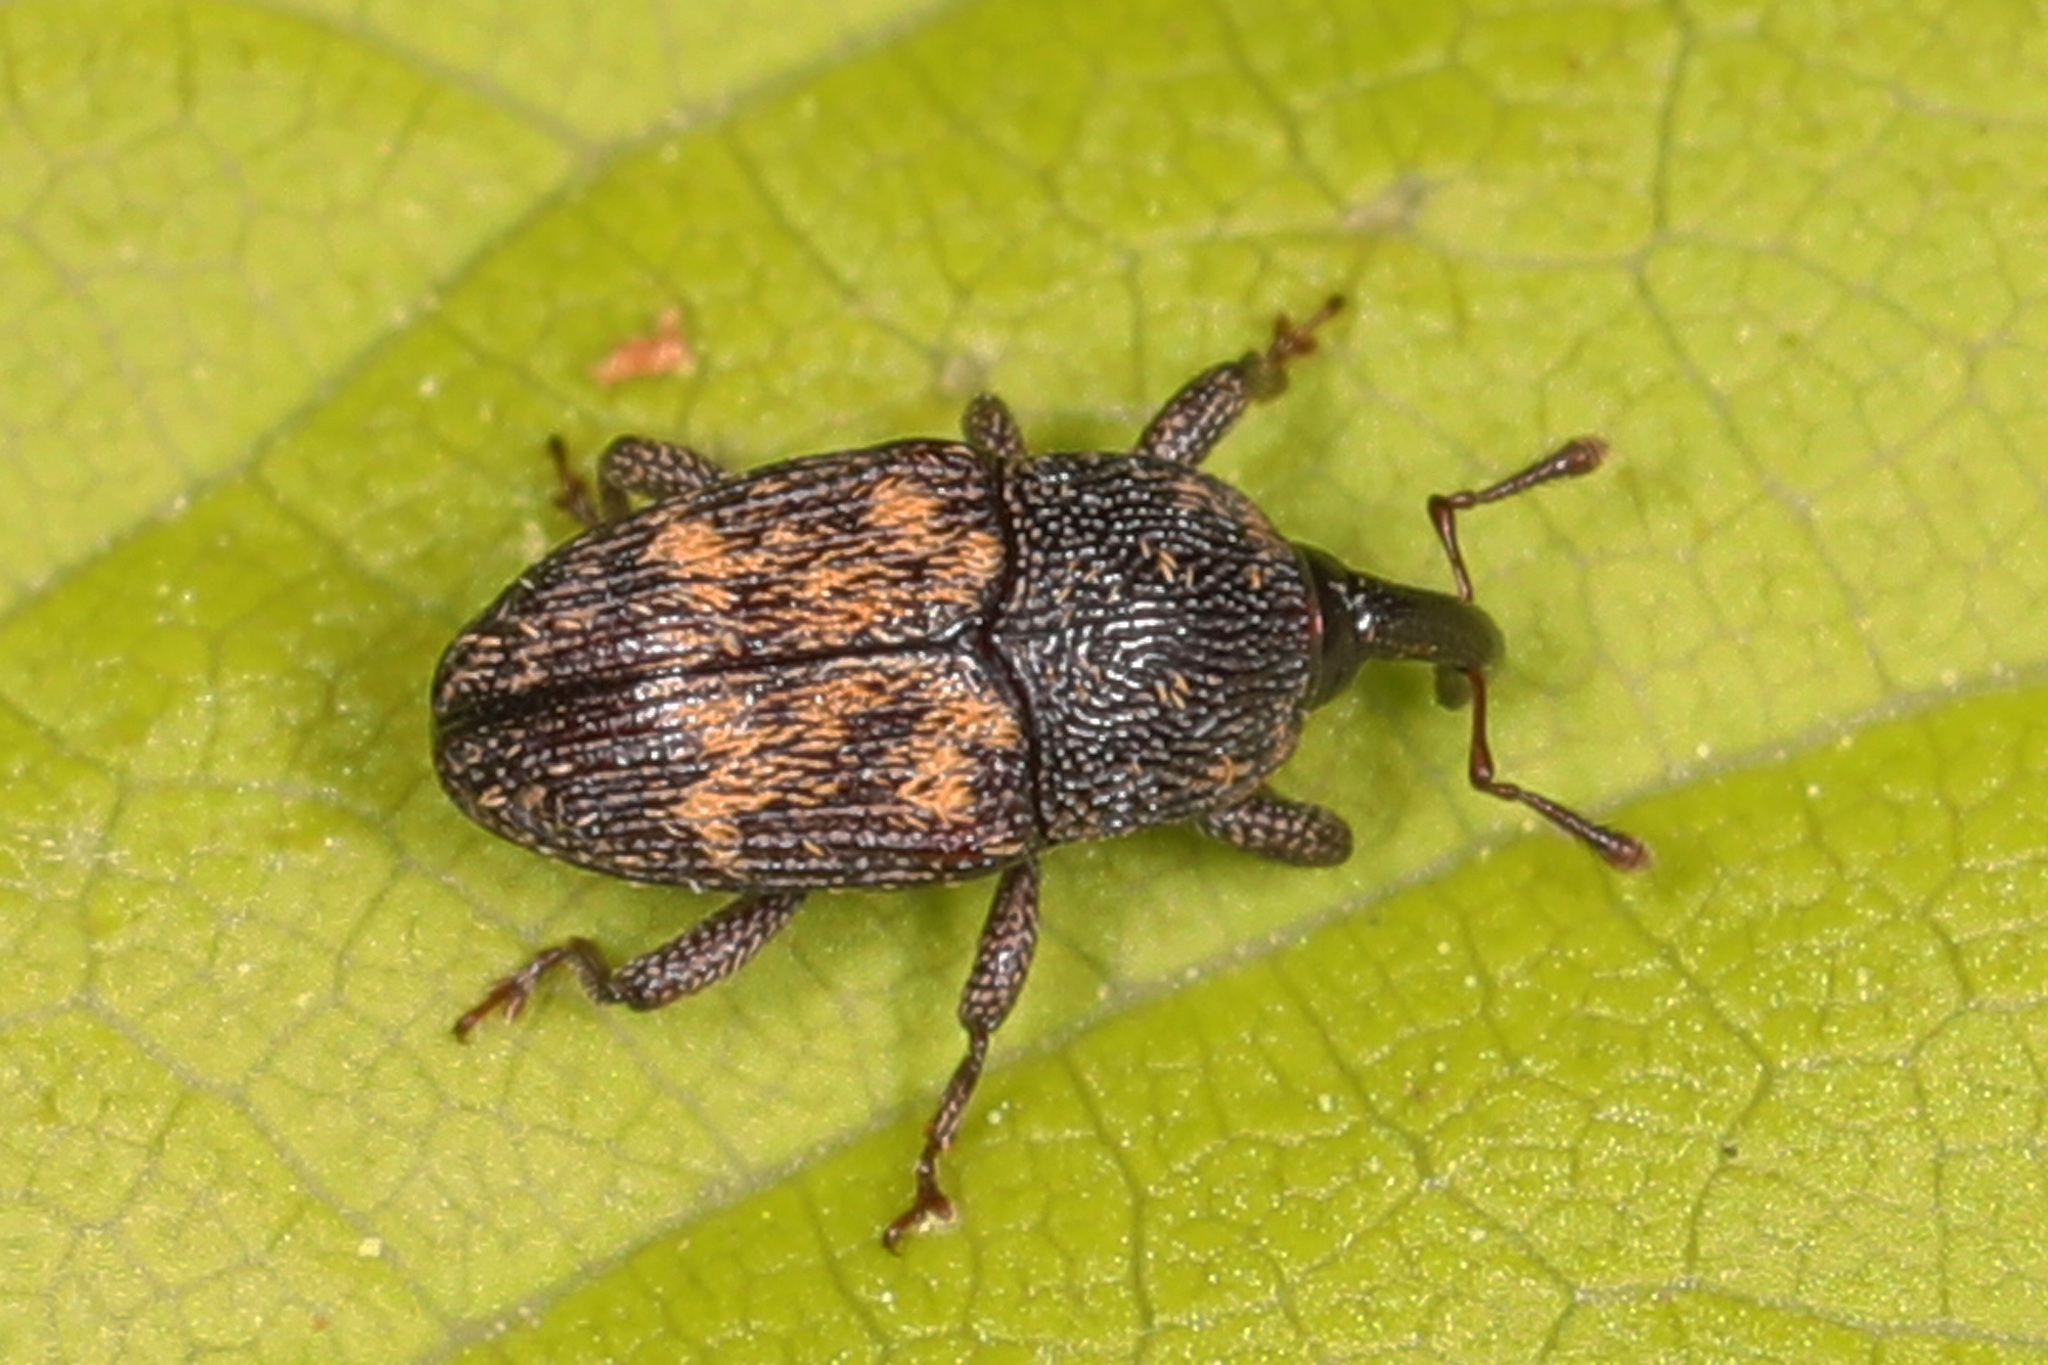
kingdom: Animalia
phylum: Arthropoda
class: Insecta
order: Coleoptera
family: Curculionidae
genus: Glyptobaris
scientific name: Glyptobaris lecontei
